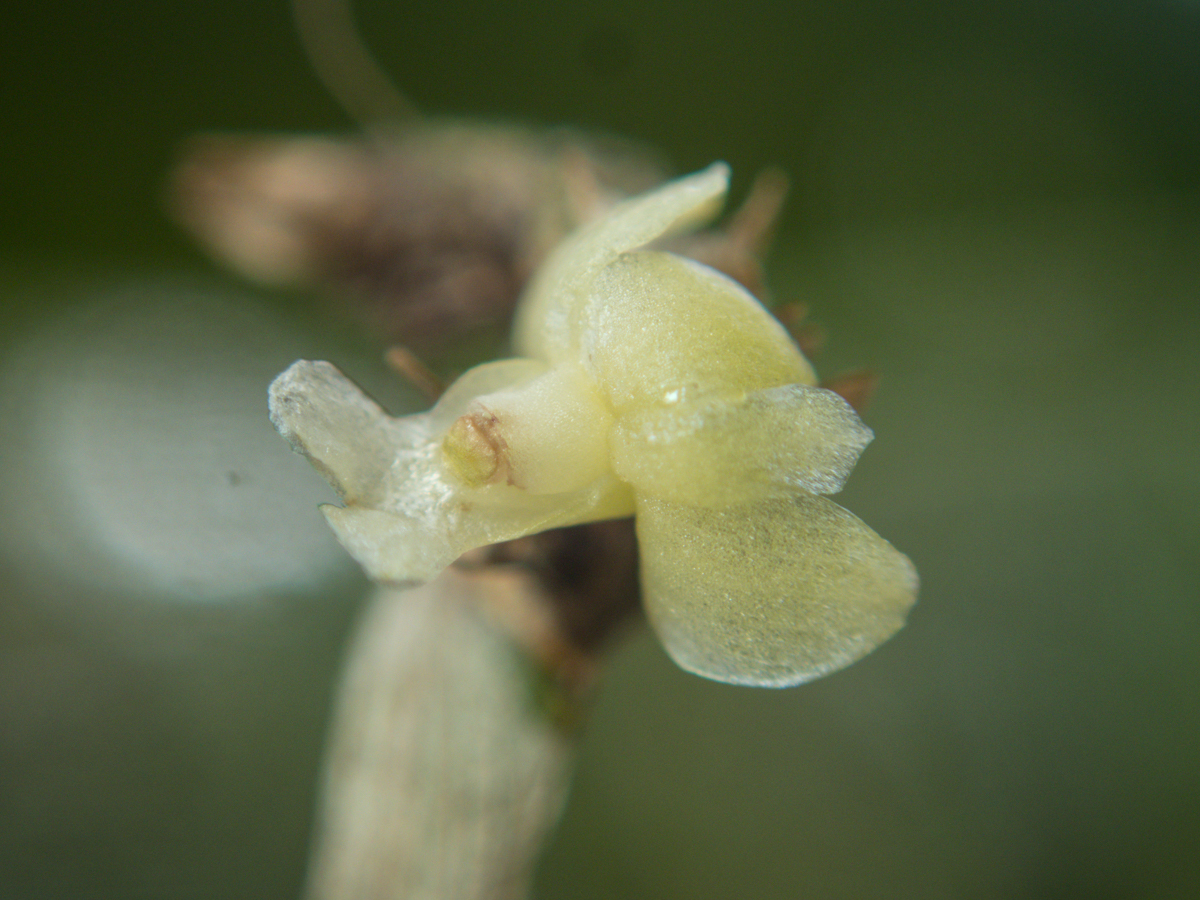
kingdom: Plantae
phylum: Tracheophyta
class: Liliopsida
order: Asparagales
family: Orchidaceae
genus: Dendrobium
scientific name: Dendrobium aloifolium
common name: Aloe-like dendrobium
